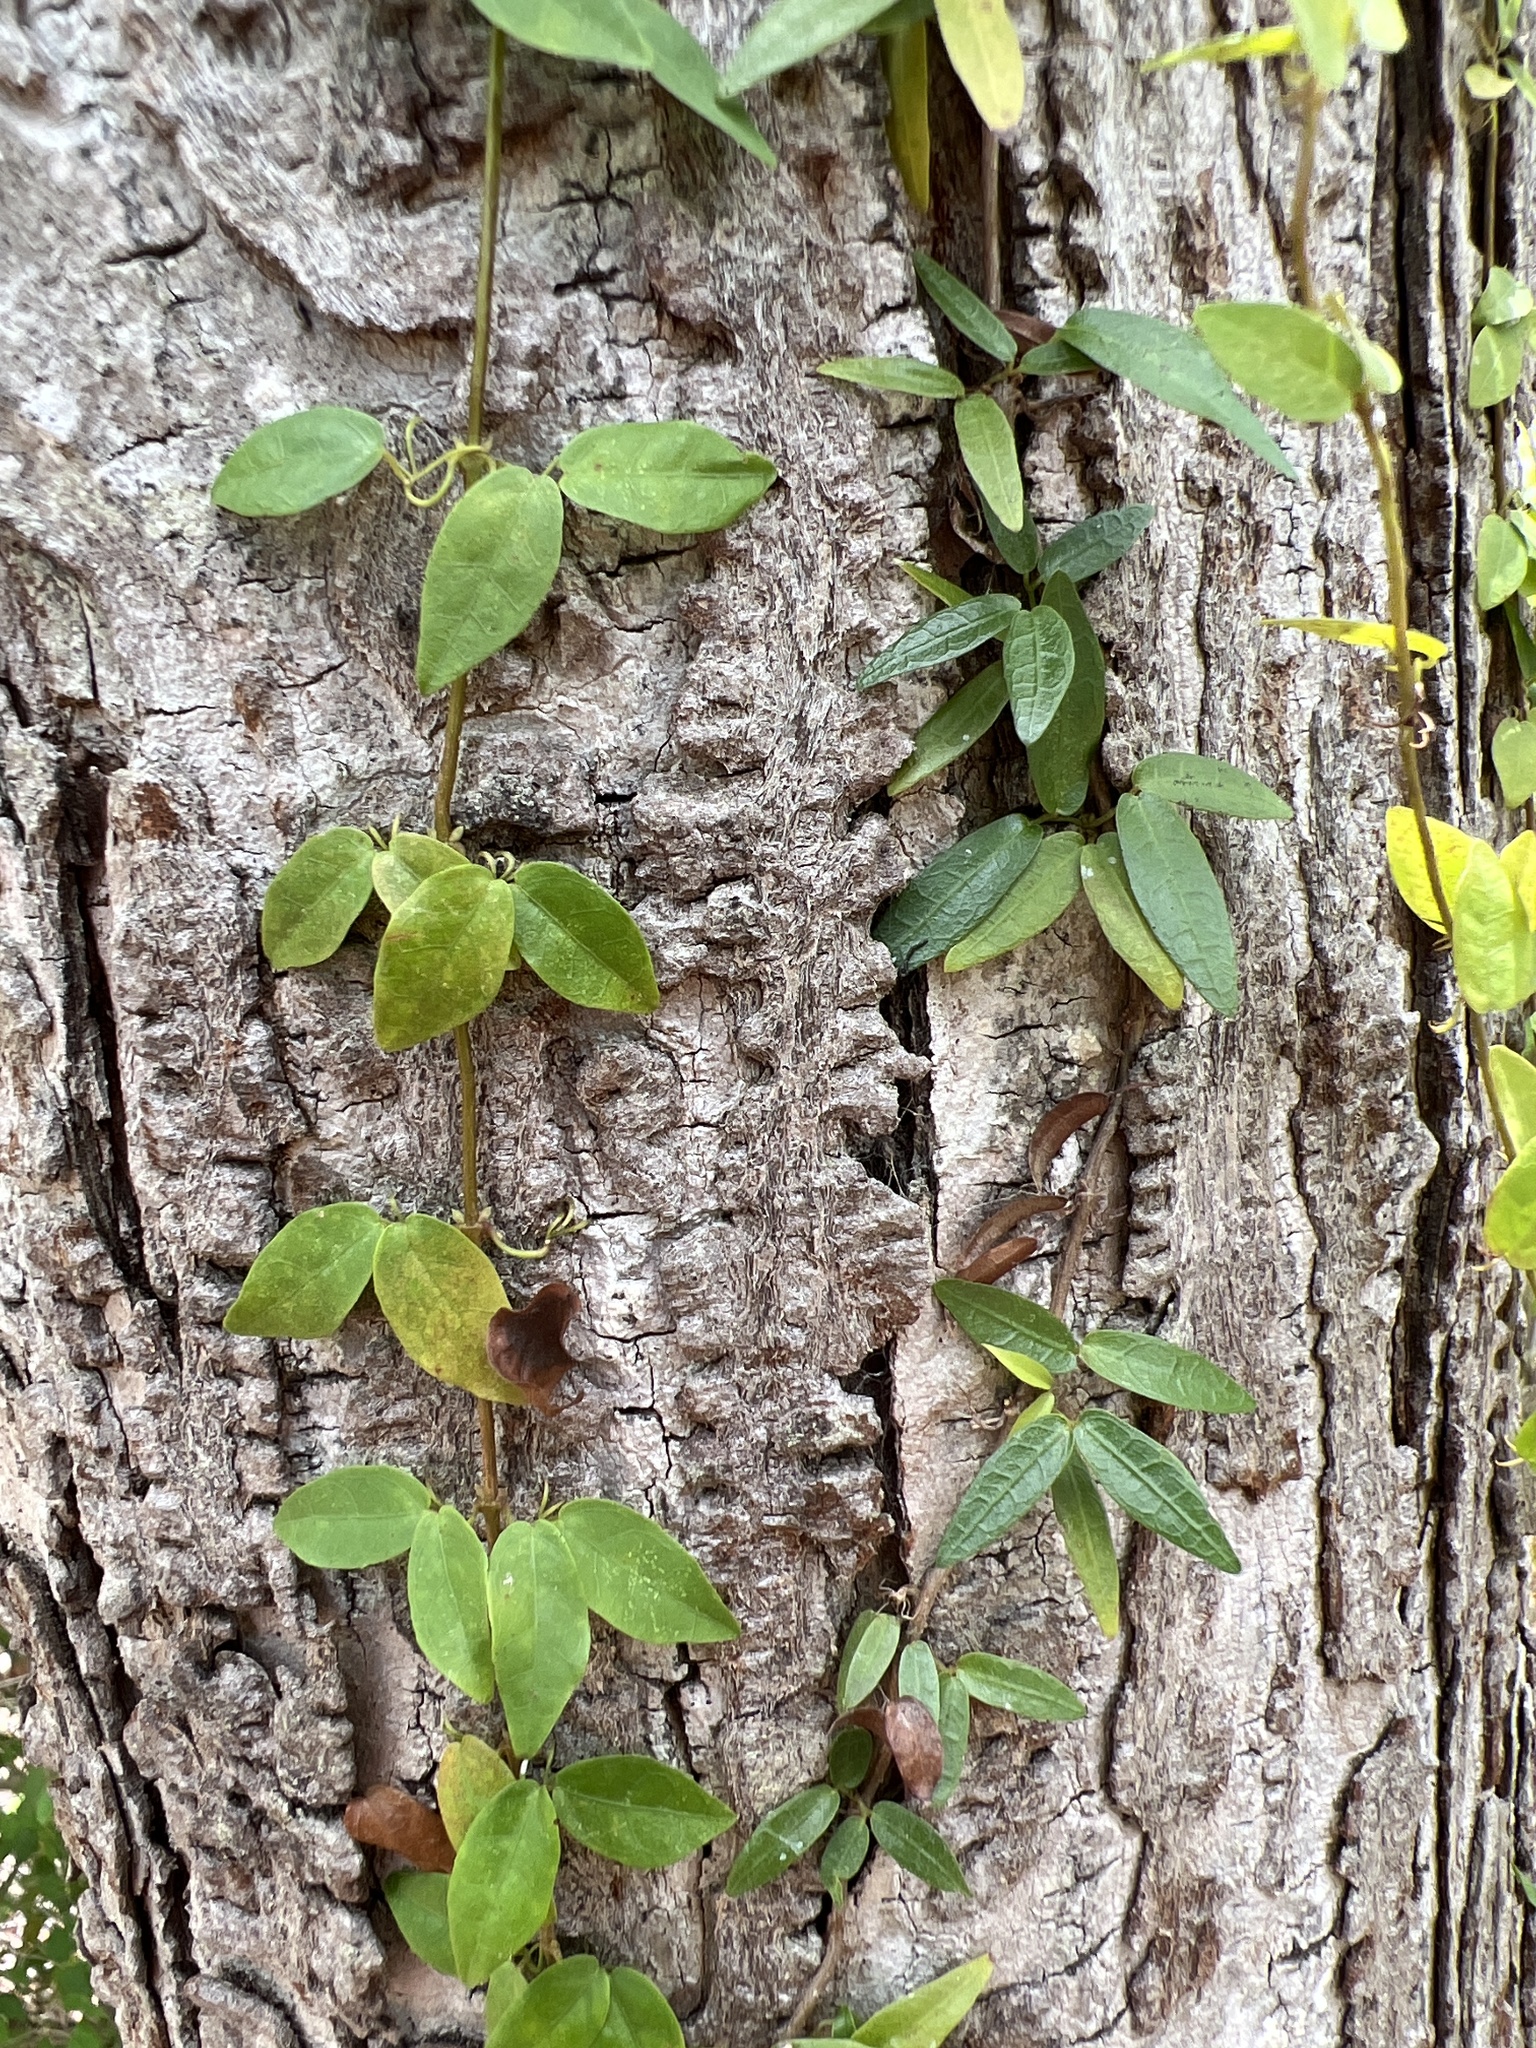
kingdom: Plantae
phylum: Tracheophyta
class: Magnoliopsida
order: Lamiales
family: Bignoniaceae
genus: Dolichandra
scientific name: Dolichandra unguis-cati
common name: Catclaw vine
